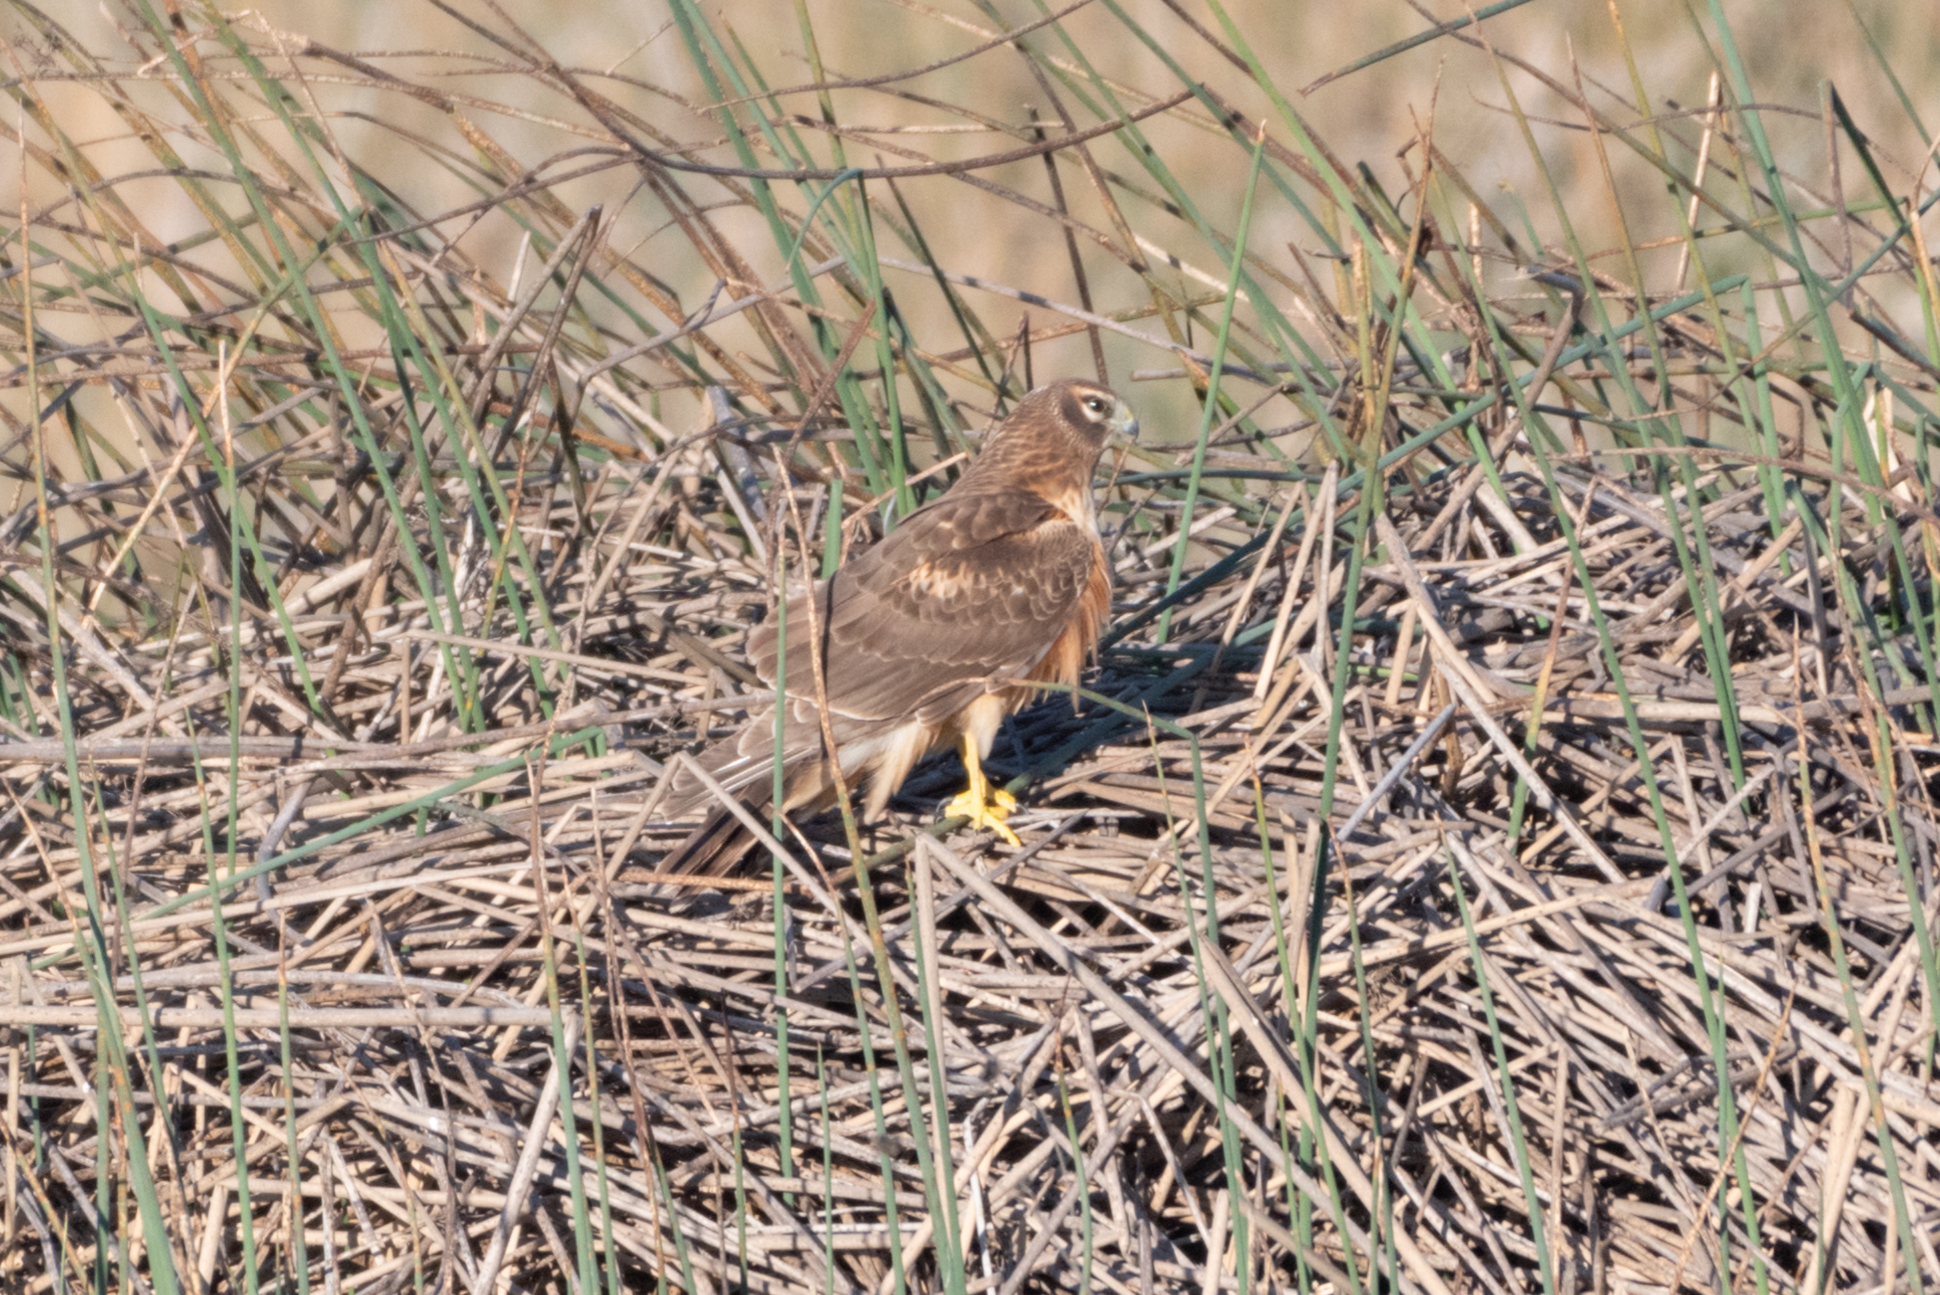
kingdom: Animalia
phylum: Chordata
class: Aves
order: Accipitriformes
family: Accipitridae
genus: Circus
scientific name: Circus cyaneus
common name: Hen harrier
